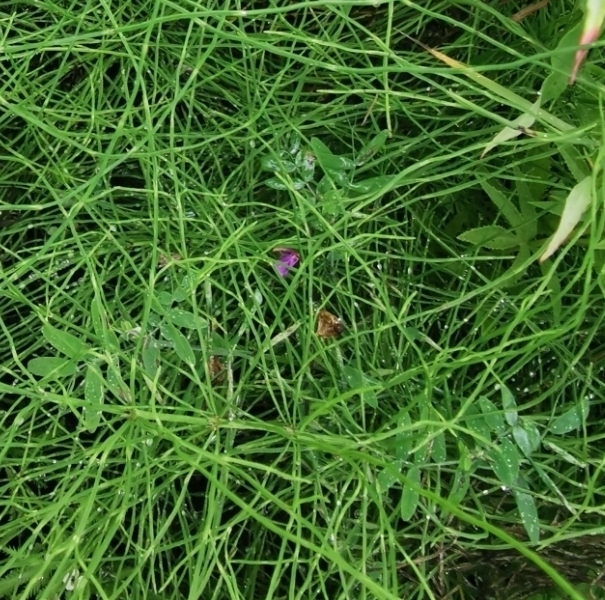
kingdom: Plantae
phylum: Tracheophyta
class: Magnoliopsida
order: Fabales
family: Fabaceae
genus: Lathyrus
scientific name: Lathyrus palustris
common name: Marsh pea
